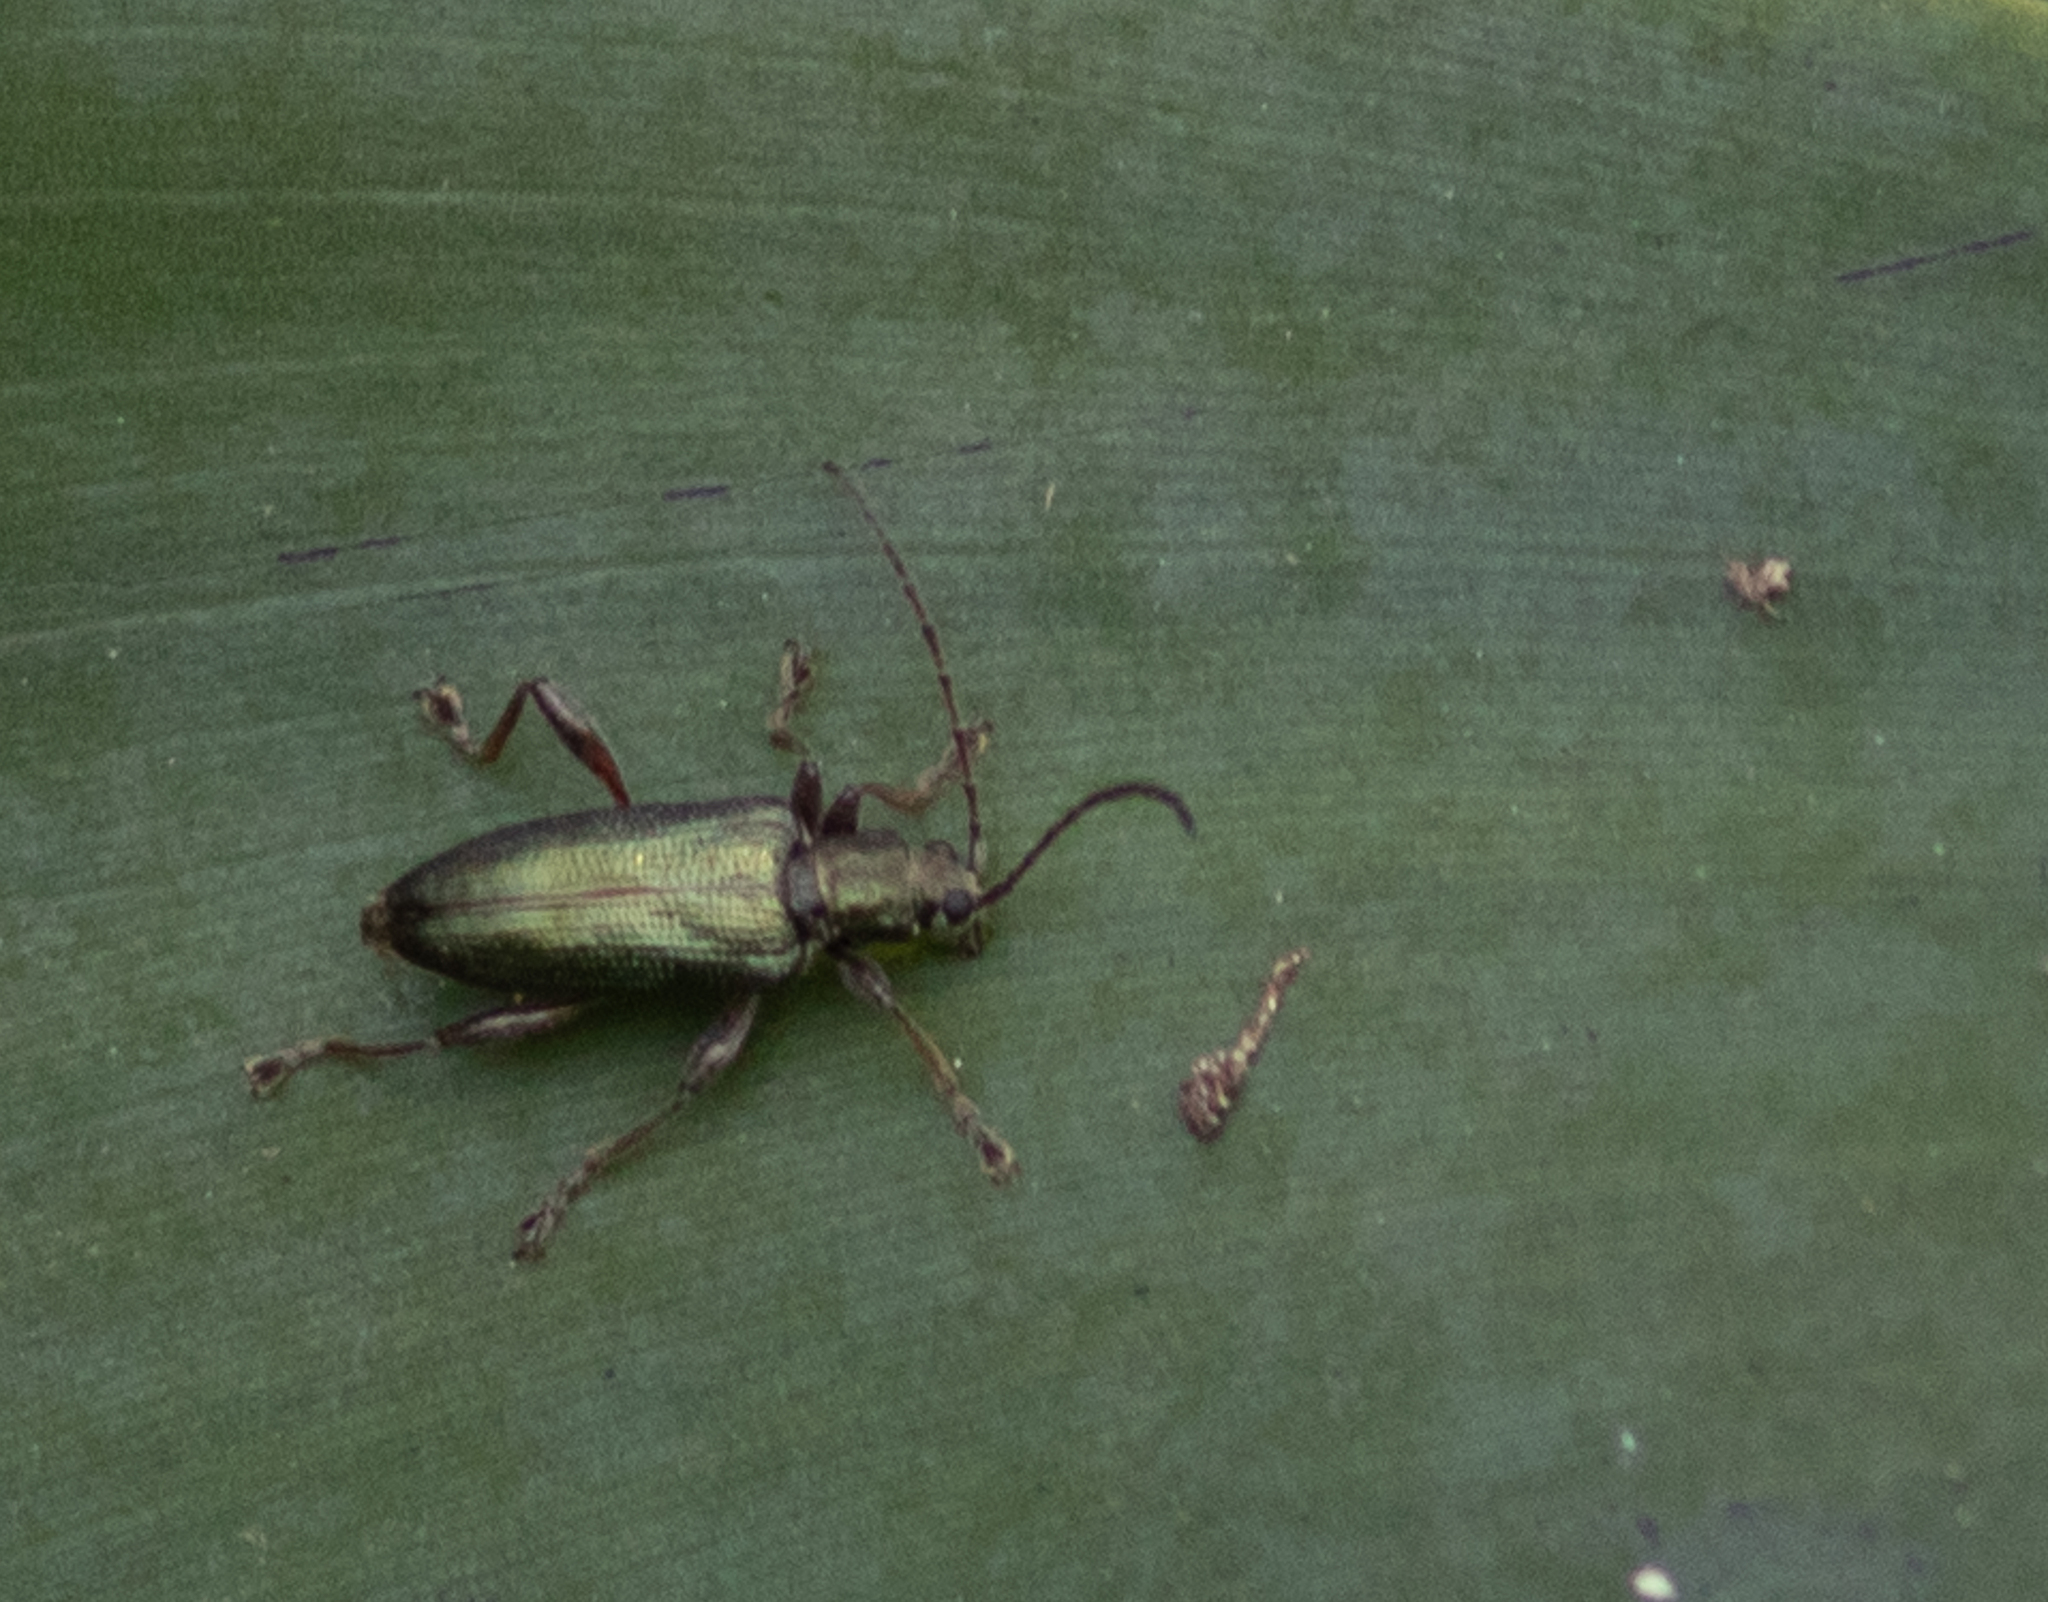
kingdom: Animalia
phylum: Arthropoda
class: Insecta
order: Coleoptera
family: Chrysomelidae
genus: Donacia
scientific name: Donacia
